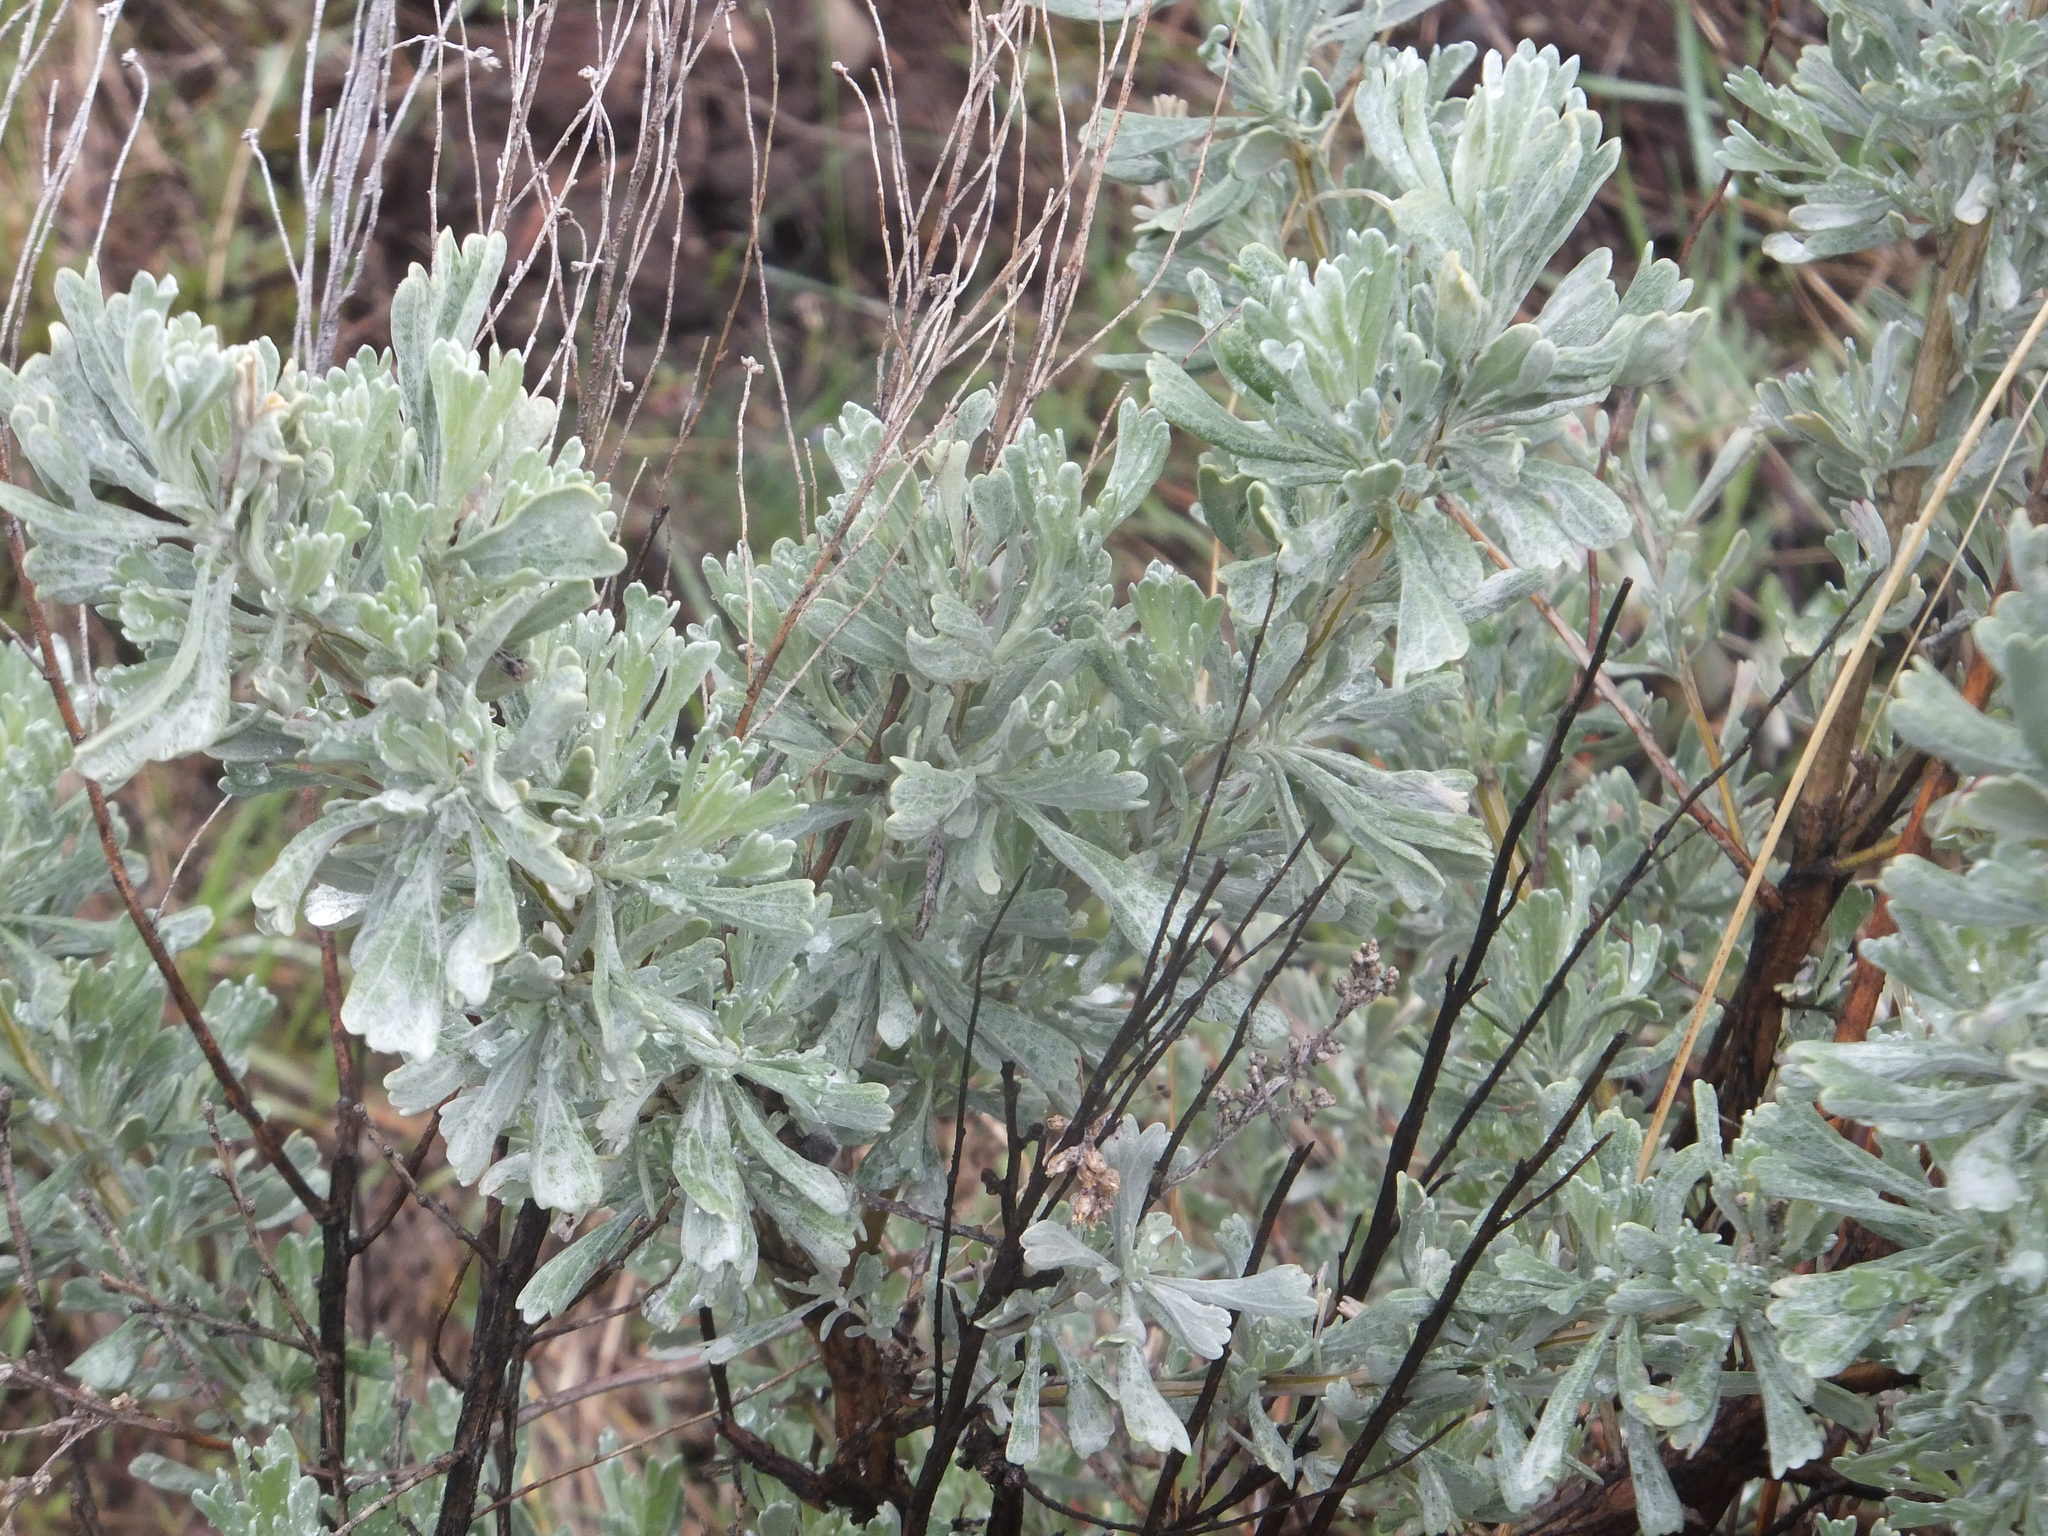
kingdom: Plantae
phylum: Tracheophyta
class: Magnoliopsida
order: Asterales
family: Asteraceae
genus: Artemisia
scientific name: Artemisia tridentata
